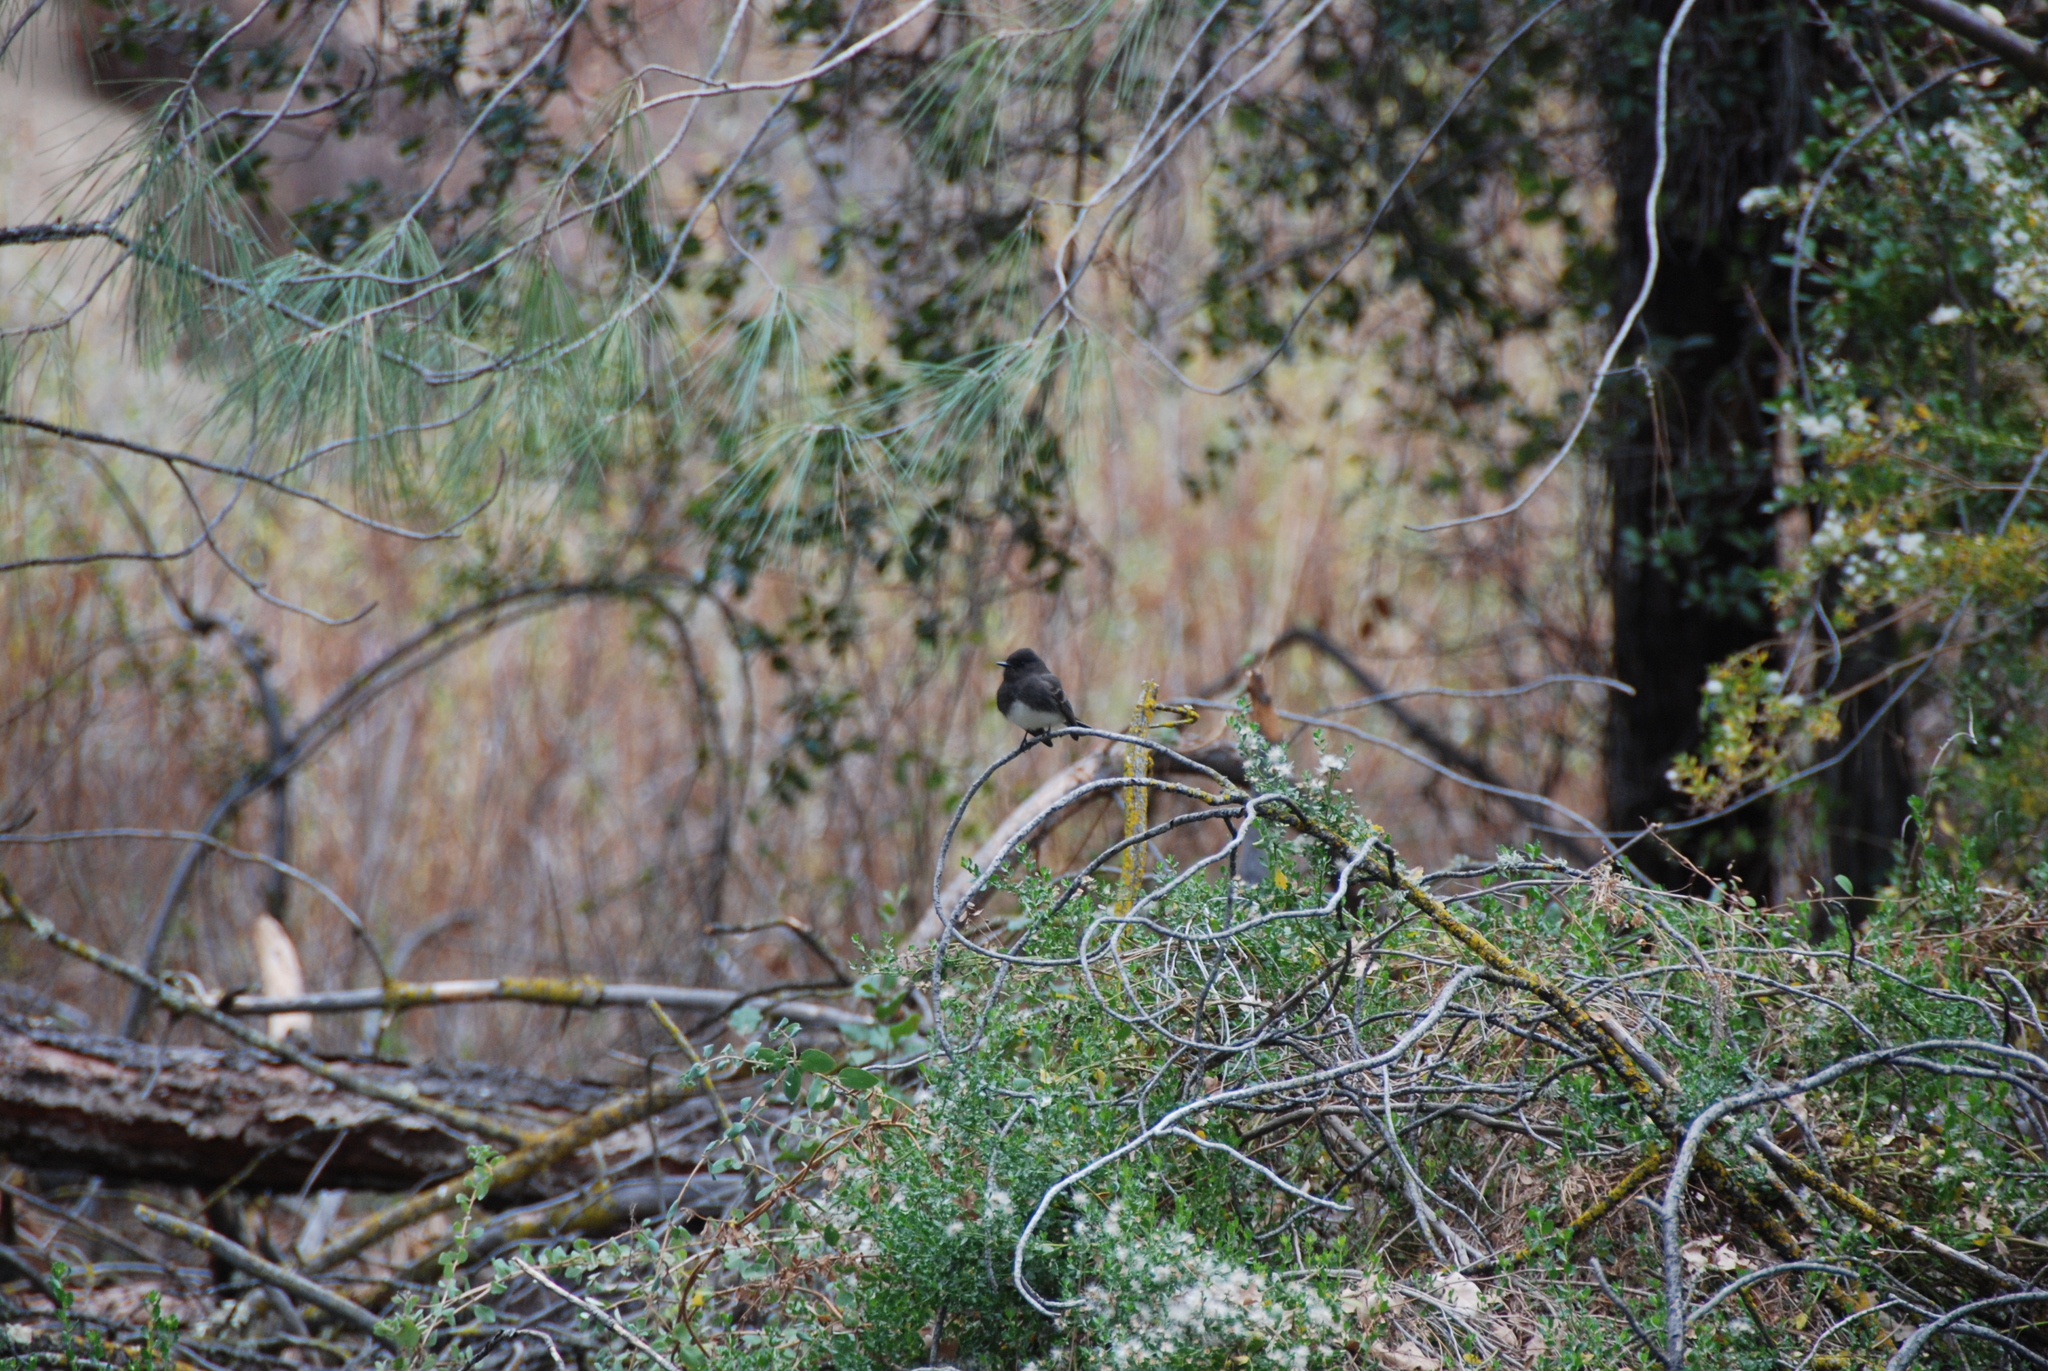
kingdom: Animalia
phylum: Chordata
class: Aves
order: Passeriformes
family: Tyrannidae
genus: Sayornis
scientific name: Sayornis nigricans
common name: Black phoebe
